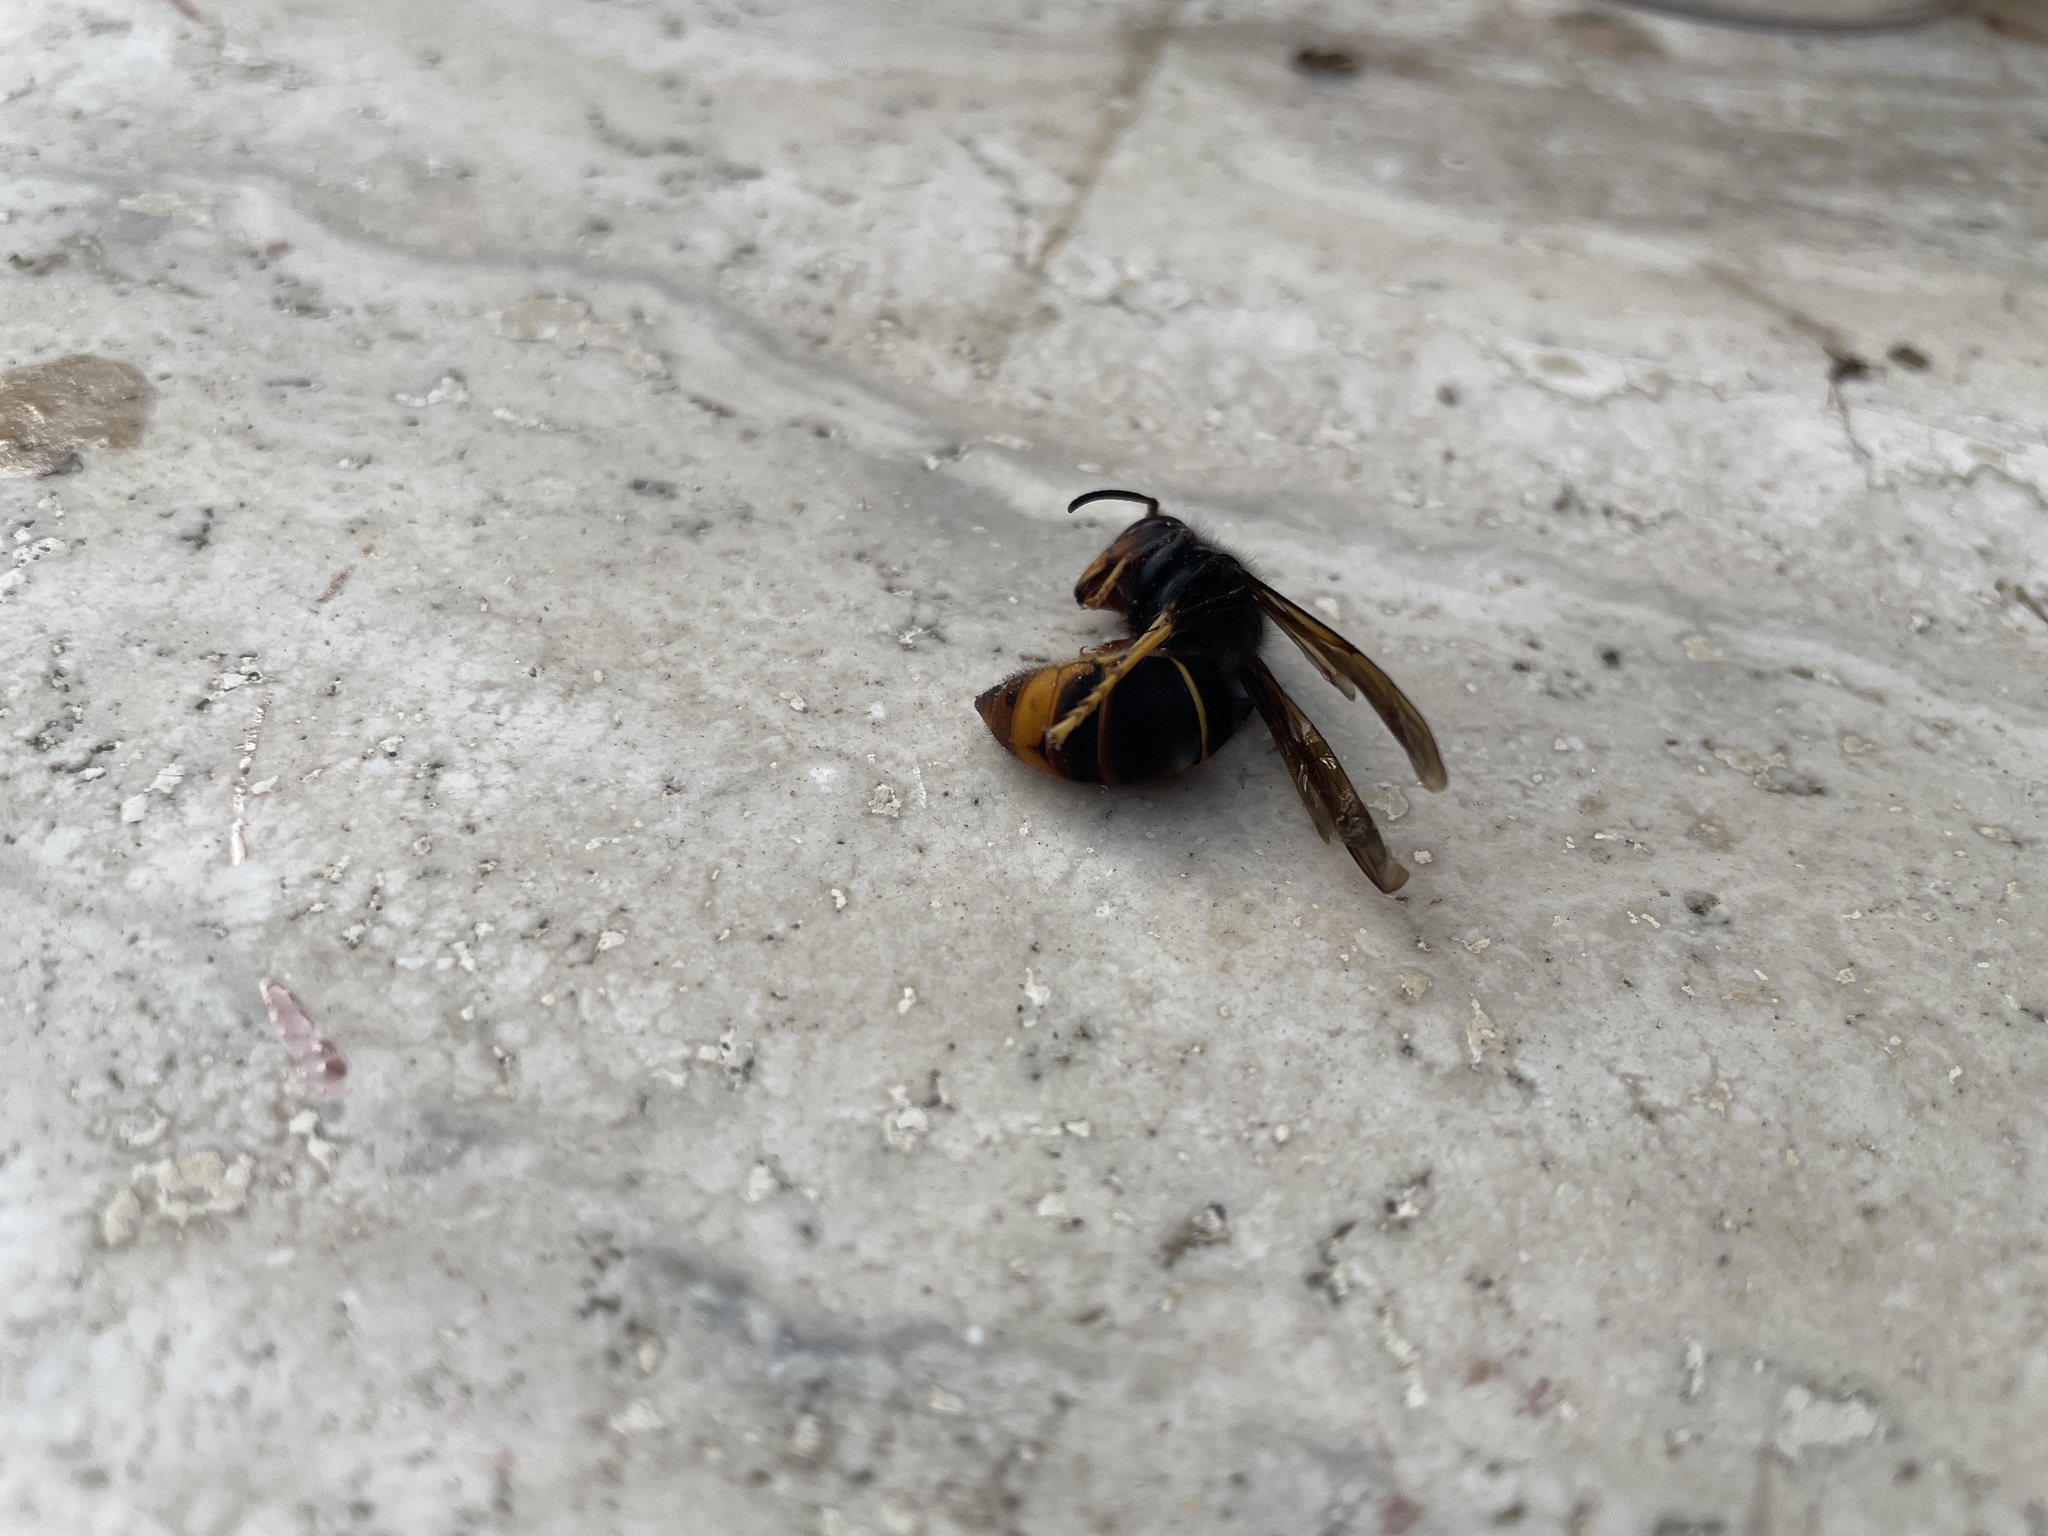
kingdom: Animalia
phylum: Arthropoda
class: Insecta
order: Hymenoptera
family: Vespidae
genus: Vespa
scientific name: Vespa velutina
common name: Asian hornet
